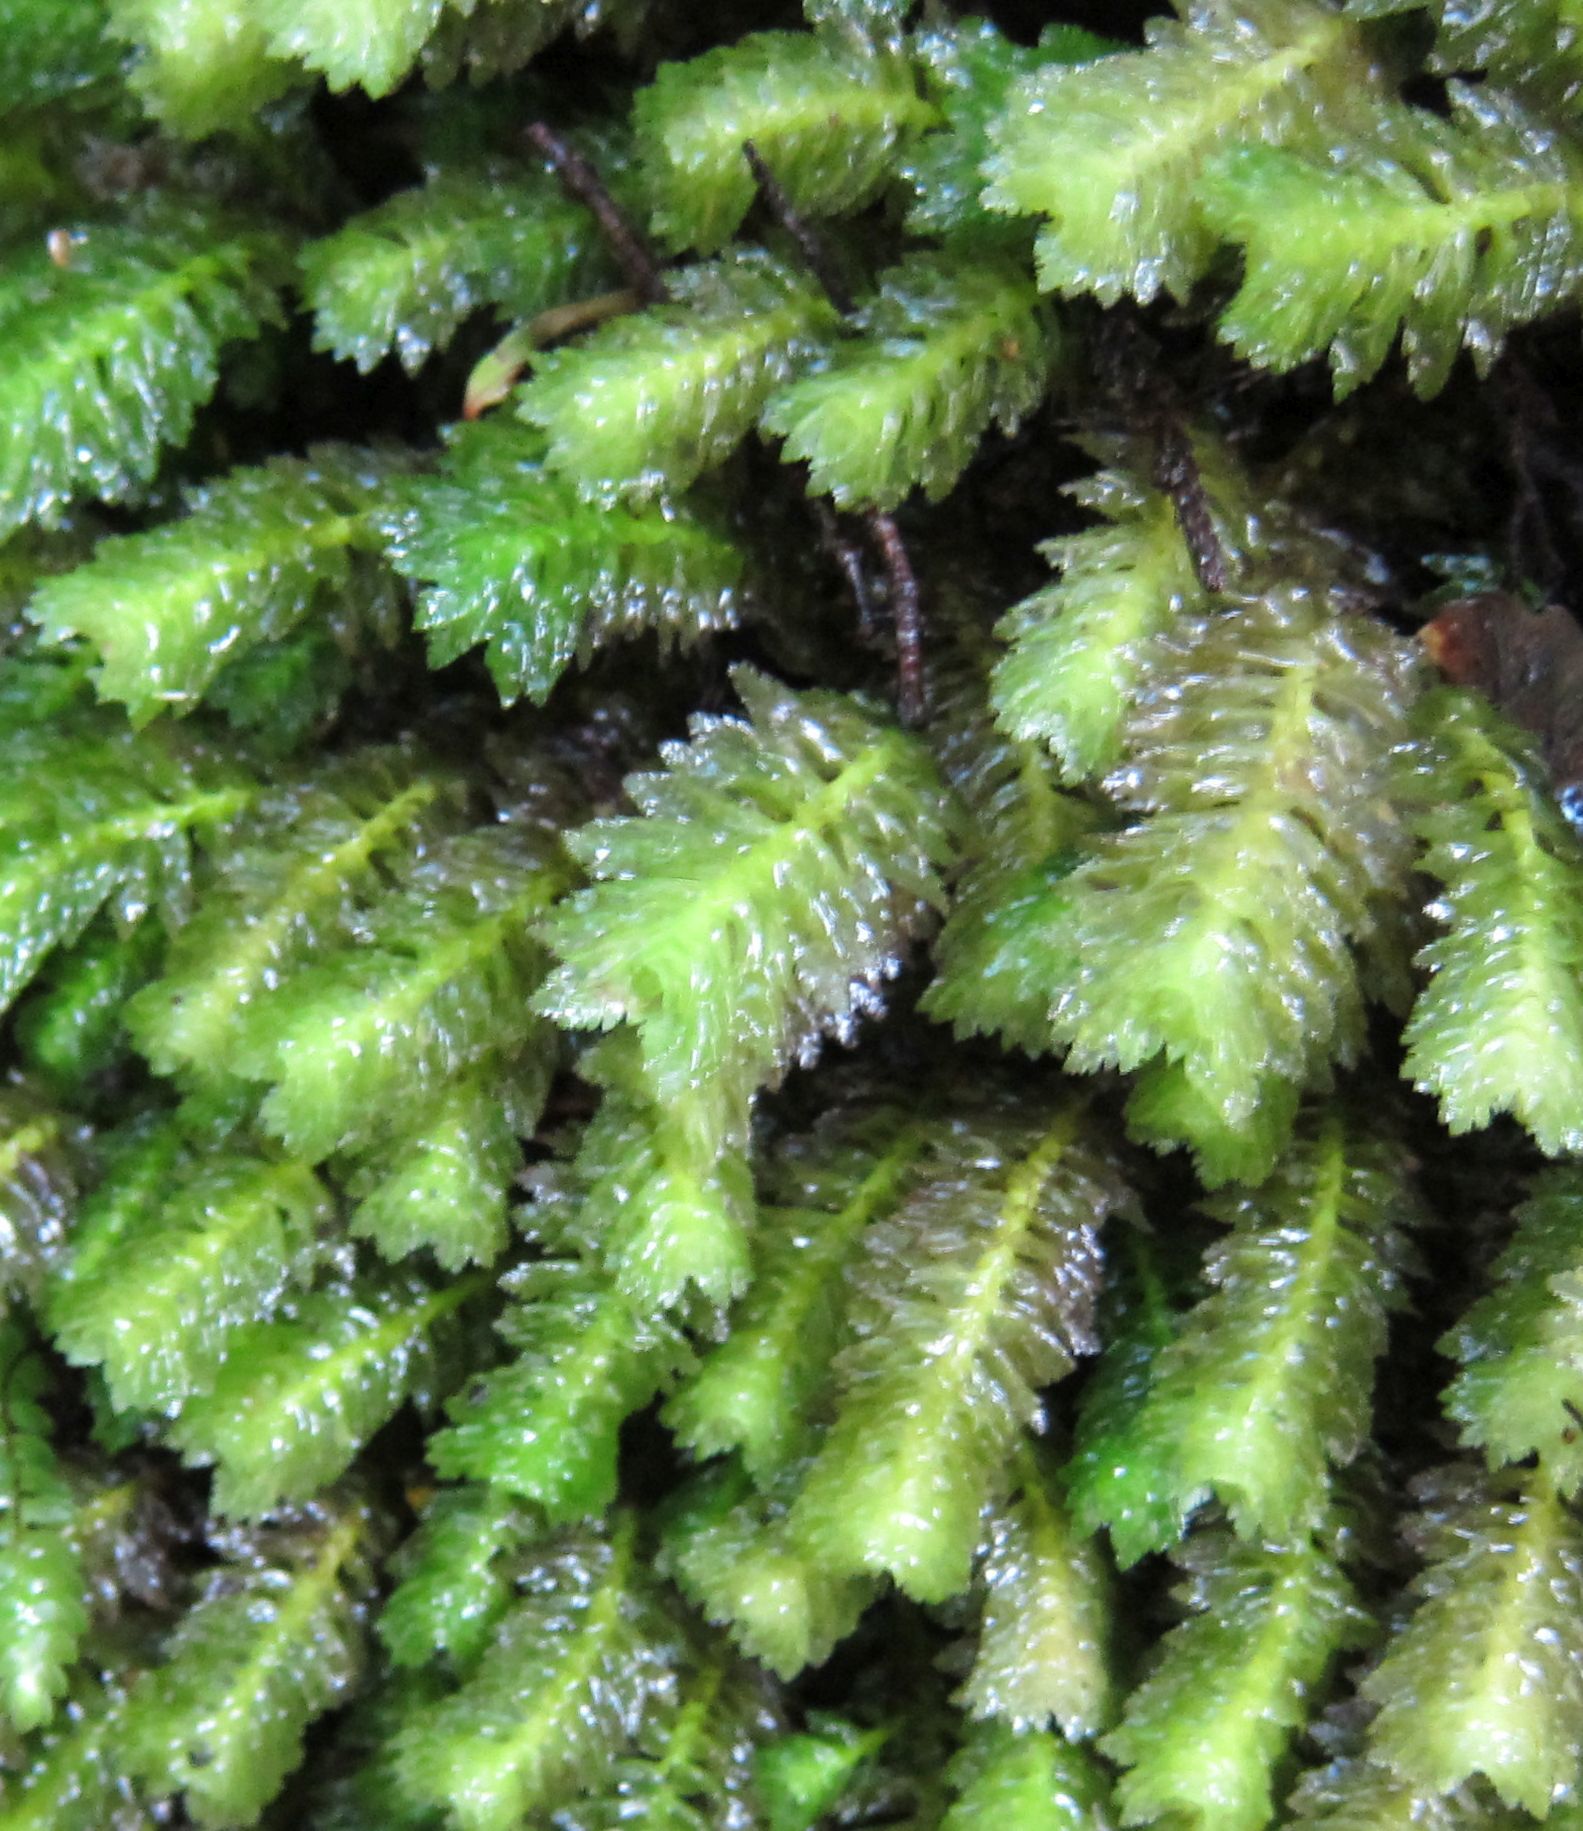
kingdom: Plantae
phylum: Marchantiophyta
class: Jungermanniopsida
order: Jungermanniales
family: Schistochilaceae
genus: Schistochila
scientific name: Schistochila appendiculata
